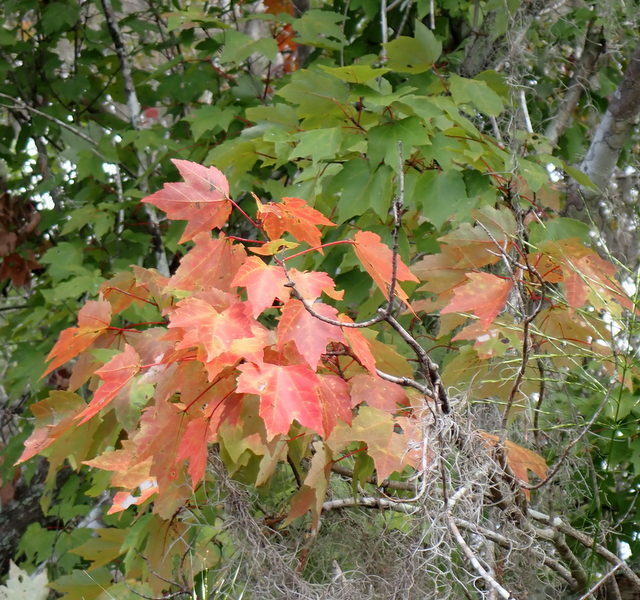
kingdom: Plantae
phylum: Tracheophyta
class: Magnoliopsida
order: Sapindales
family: Sapindaceae
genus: Acer
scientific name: Acer rubrum
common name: Red maple
